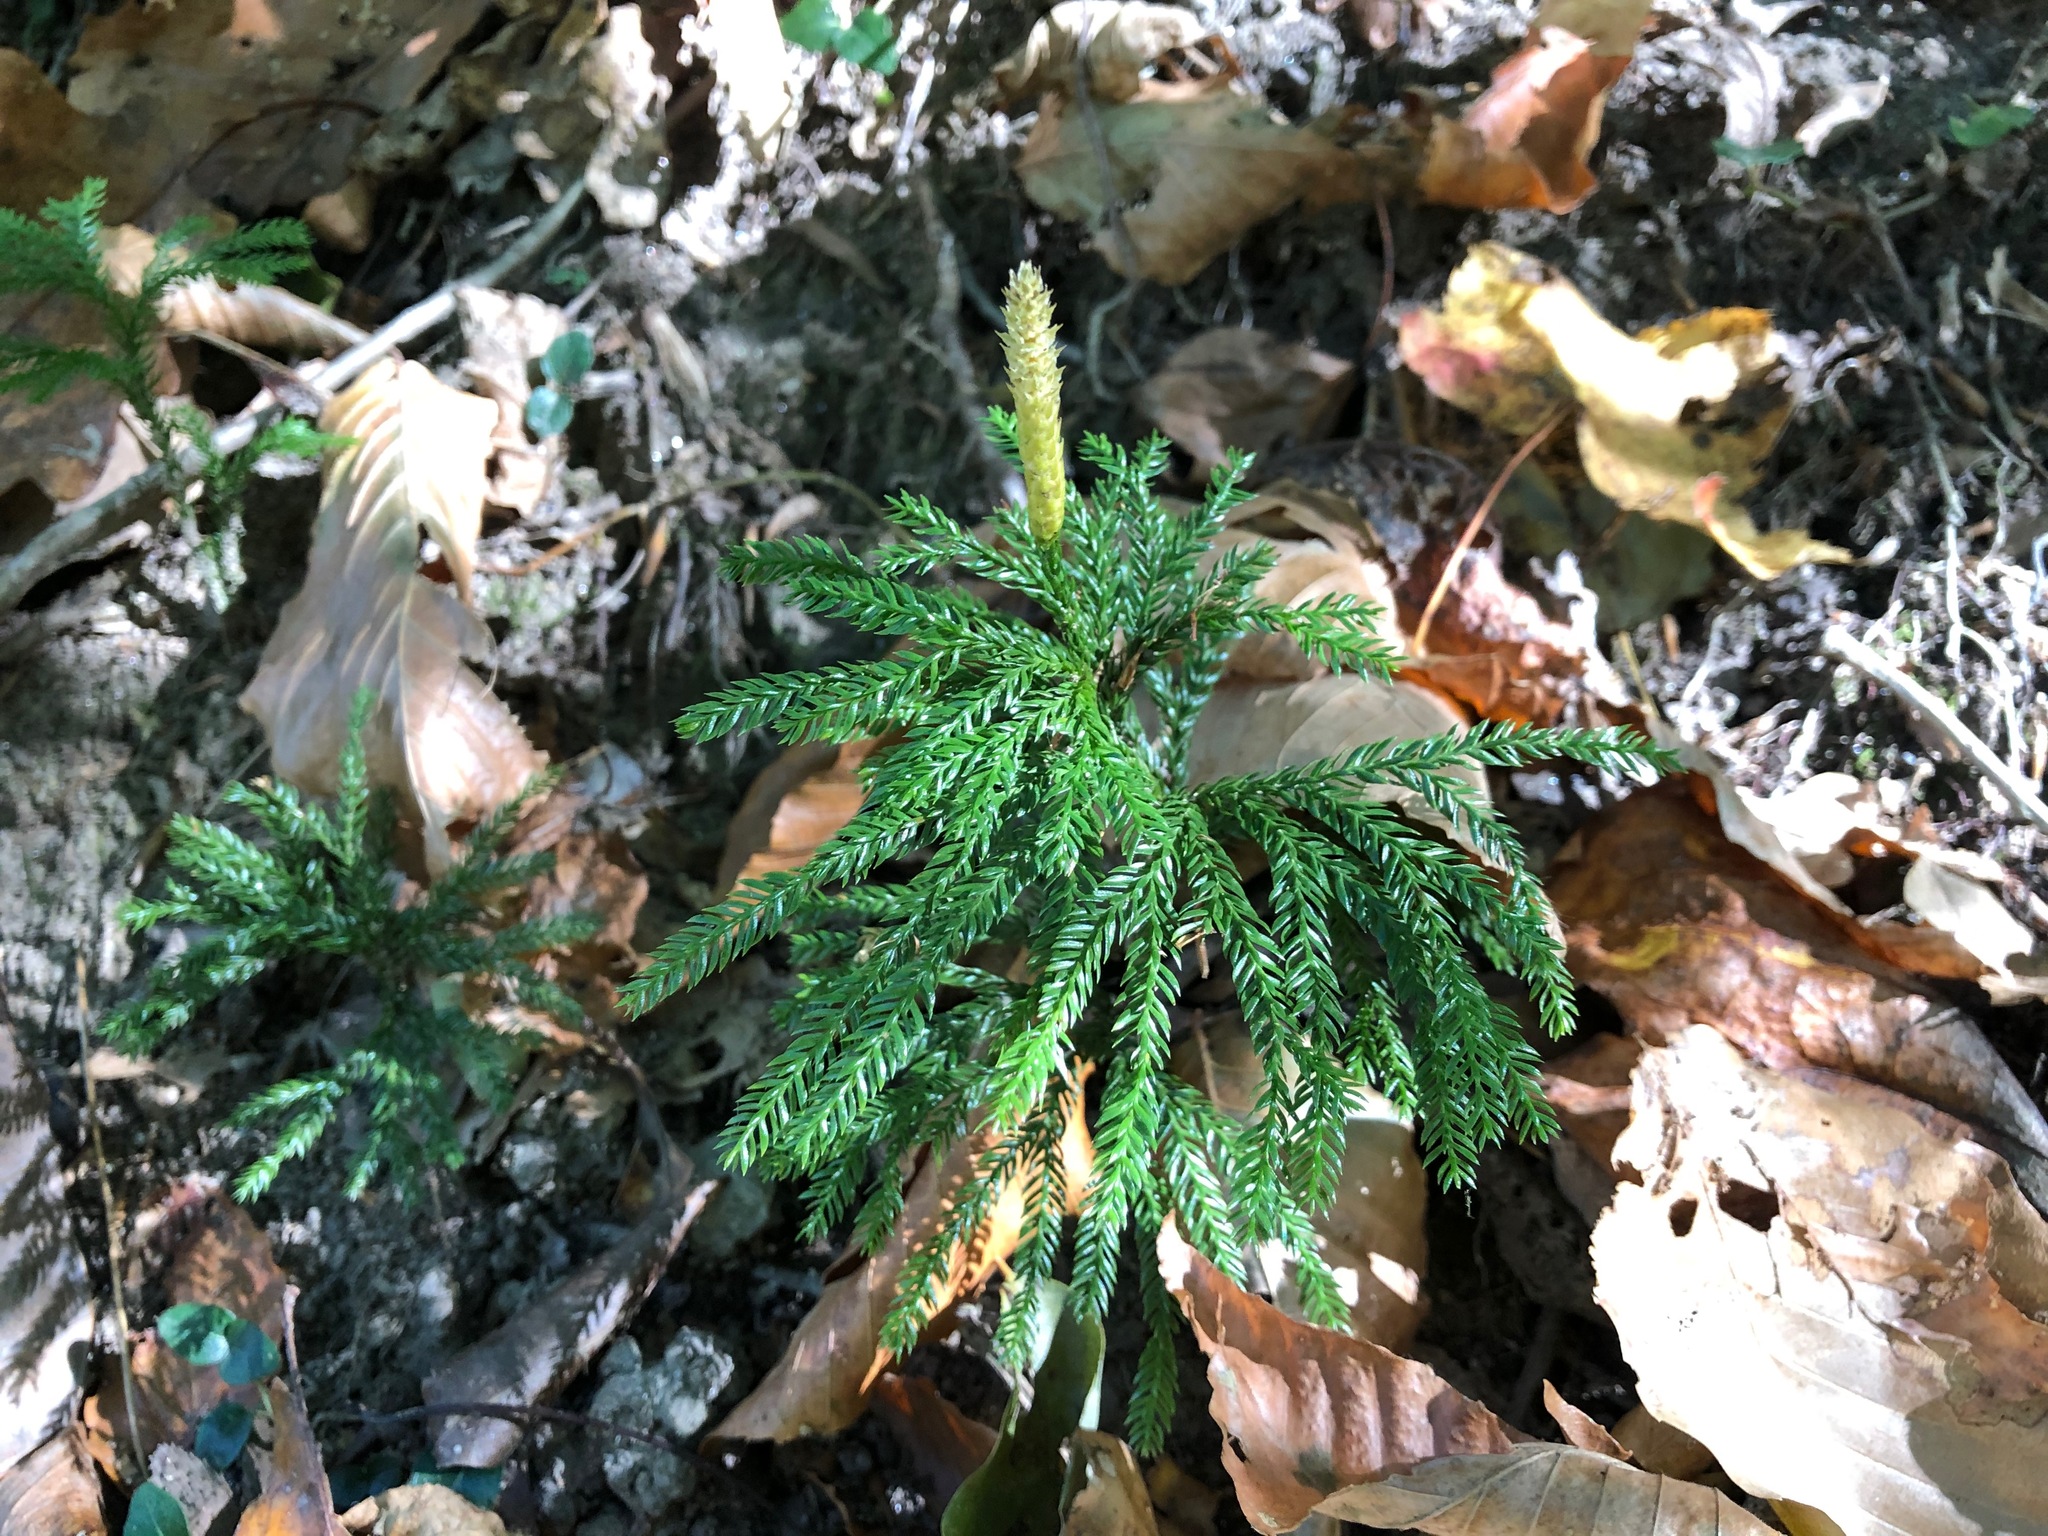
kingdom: Plantae
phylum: Tracheophyta
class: Lycopodiopsida
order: Lycopodiales
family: Lycopodiaceae
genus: Dendrolycopodium
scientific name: Dendrolycopodium obscurum
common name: Common ground-pine
